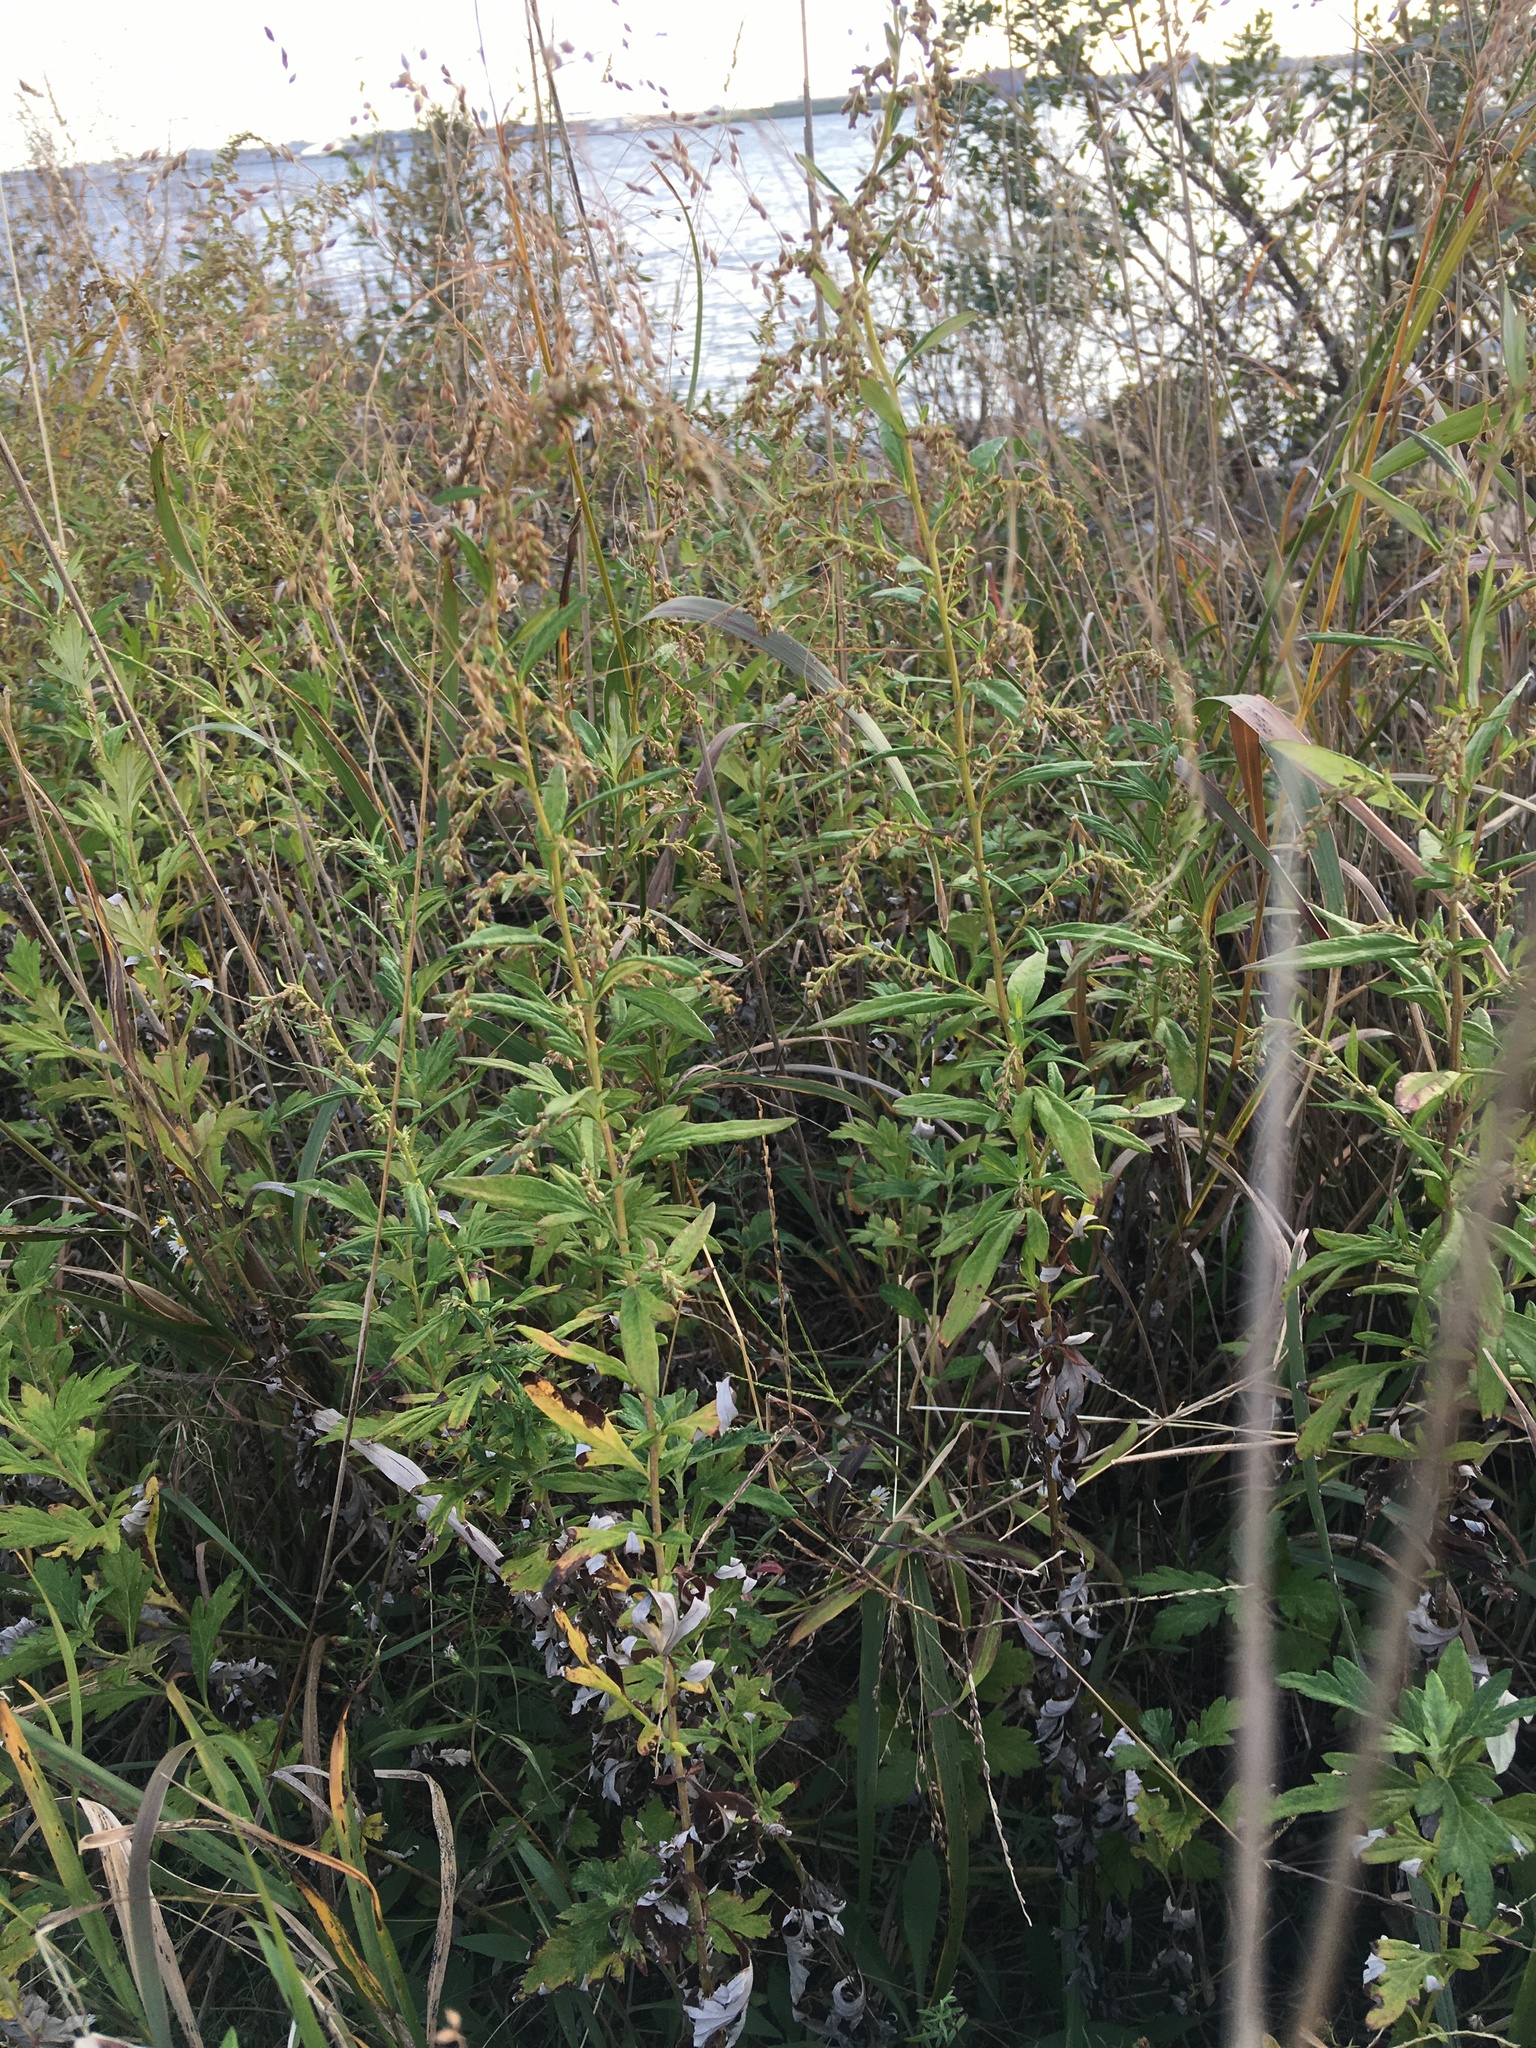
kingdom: Plantae
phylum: Tracheophyta
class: Magnoliopsida
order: Asterales
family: Asteraceae
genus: Artemisia
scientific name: Artemisia vulgaris
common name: Mugwort
